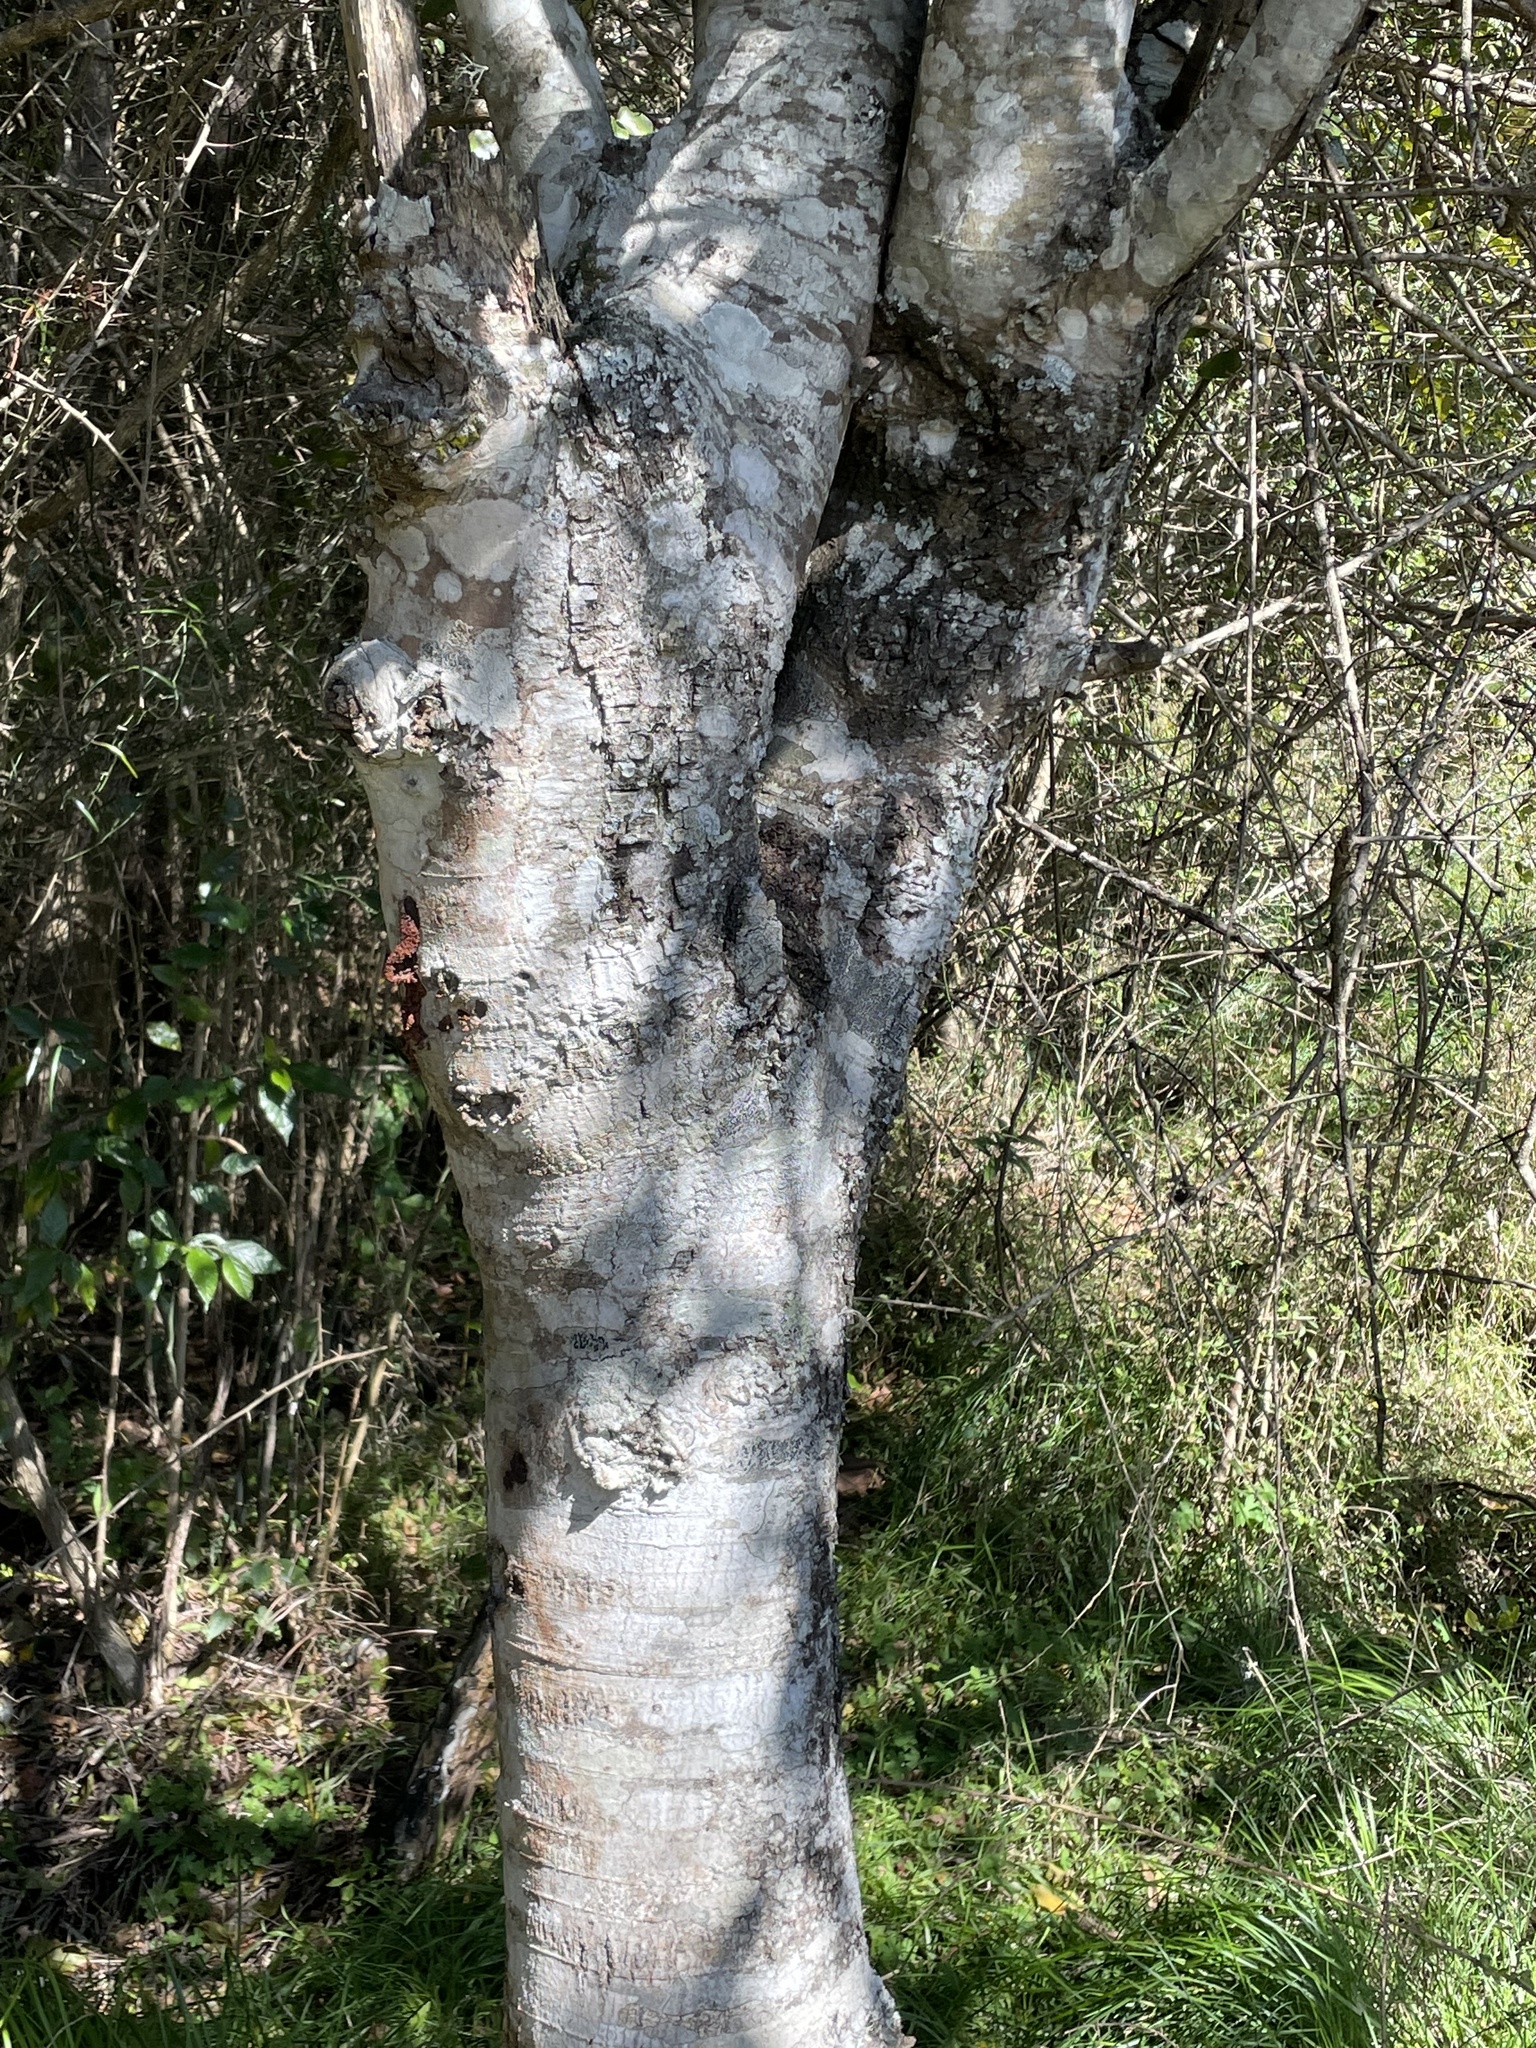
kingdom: Plantae
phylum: Tracheophyta
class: Magnoliopsida
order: Rosales
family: Rhamnaceae
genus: Alphitonia
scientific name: Alphitonia excelsa
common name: Red ash
